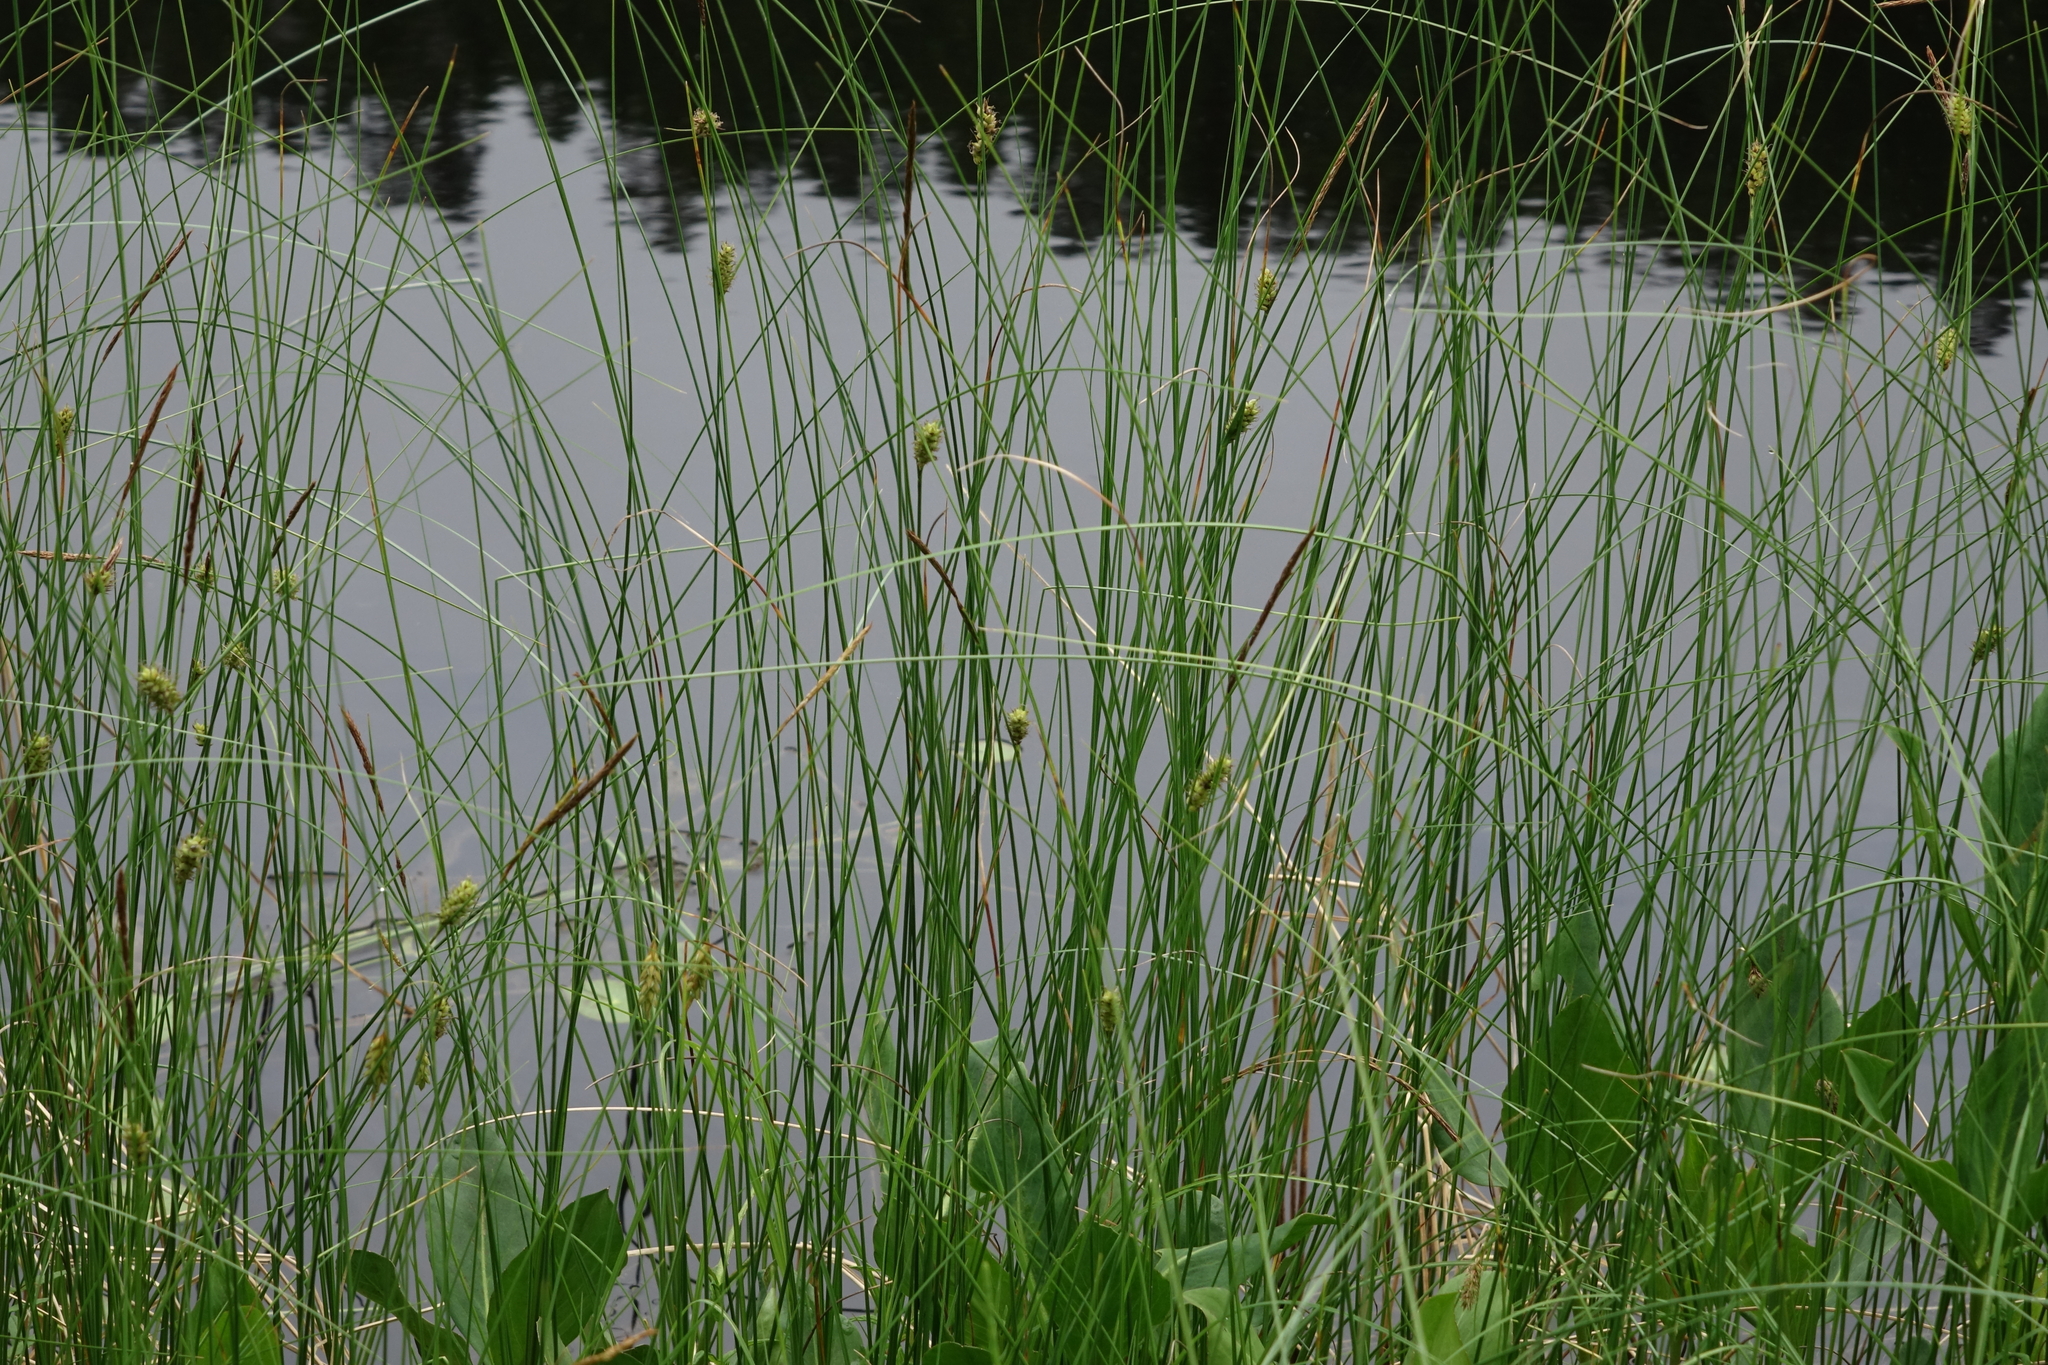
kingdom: Plantae
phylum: Tracheophyta
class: Liliopsida
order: Poales
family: Cyperaceae
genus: Carex
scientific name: Carex lasiocarpa
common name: Slender sedge
